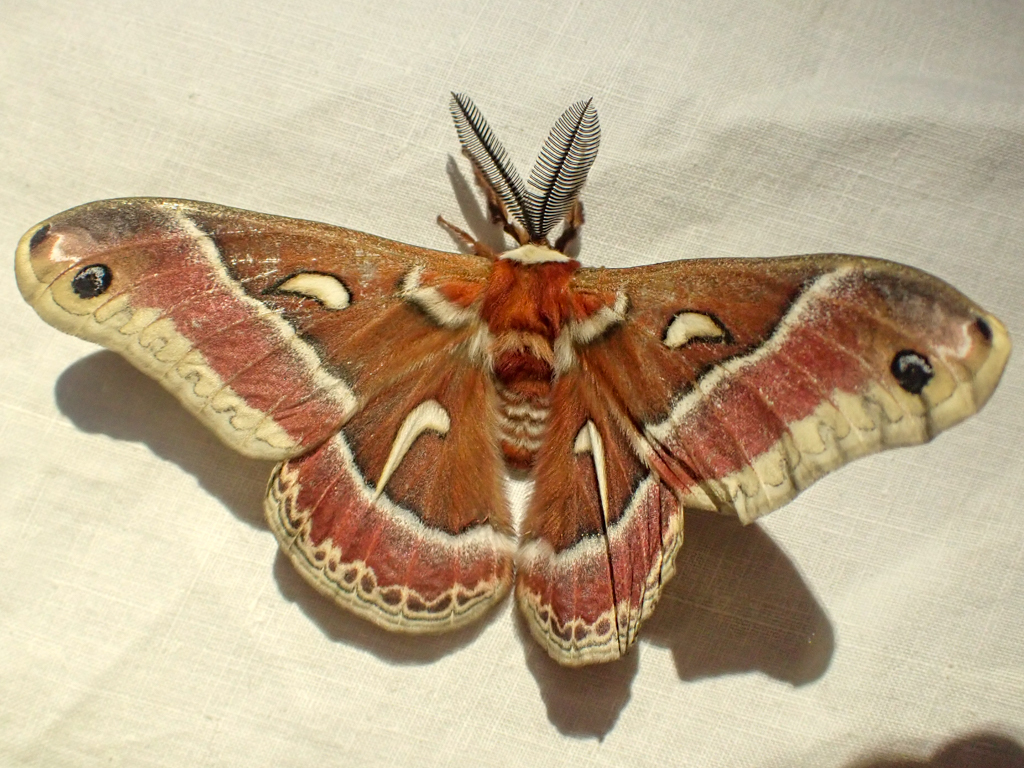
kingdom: Animalia
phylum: Arthropoda
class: Insecta
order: Lepidoptera
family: Saturniidae
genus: Hyalophora
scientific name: Hyalophora euryalus
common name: Ceanothus silkmoth
